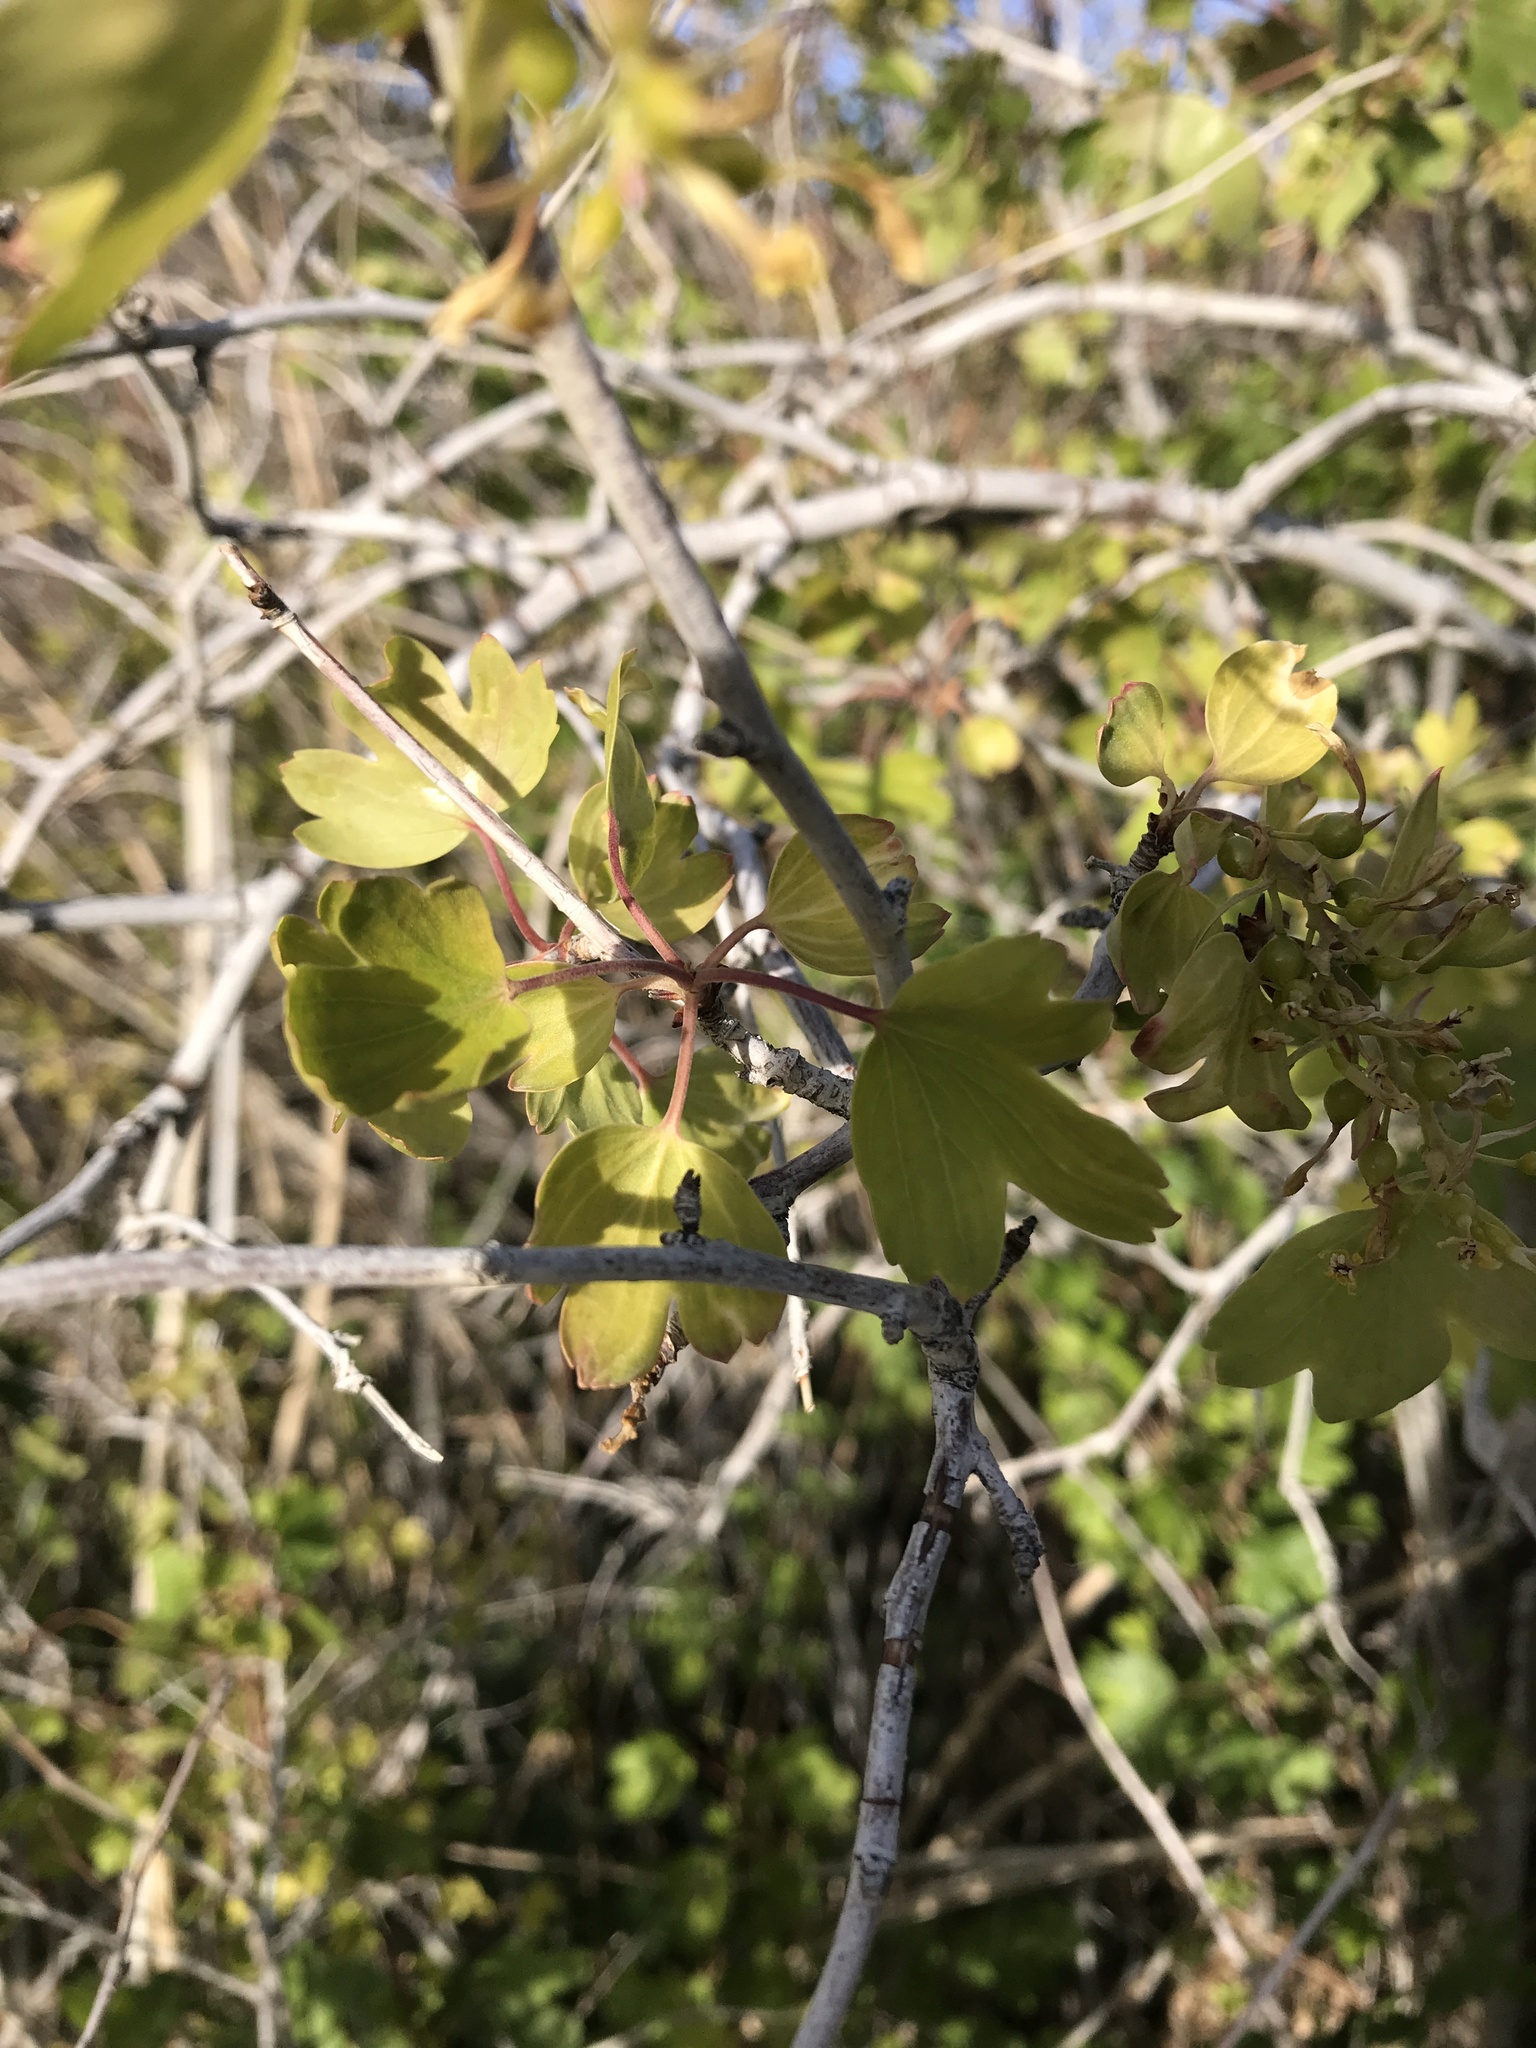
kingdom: Plantae
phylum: Tracheophyta
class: Magnoliopsida
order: Saxifragales
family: Grossulariaceae
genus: Ribes
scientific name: Ribes aureum
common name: Golden currant
